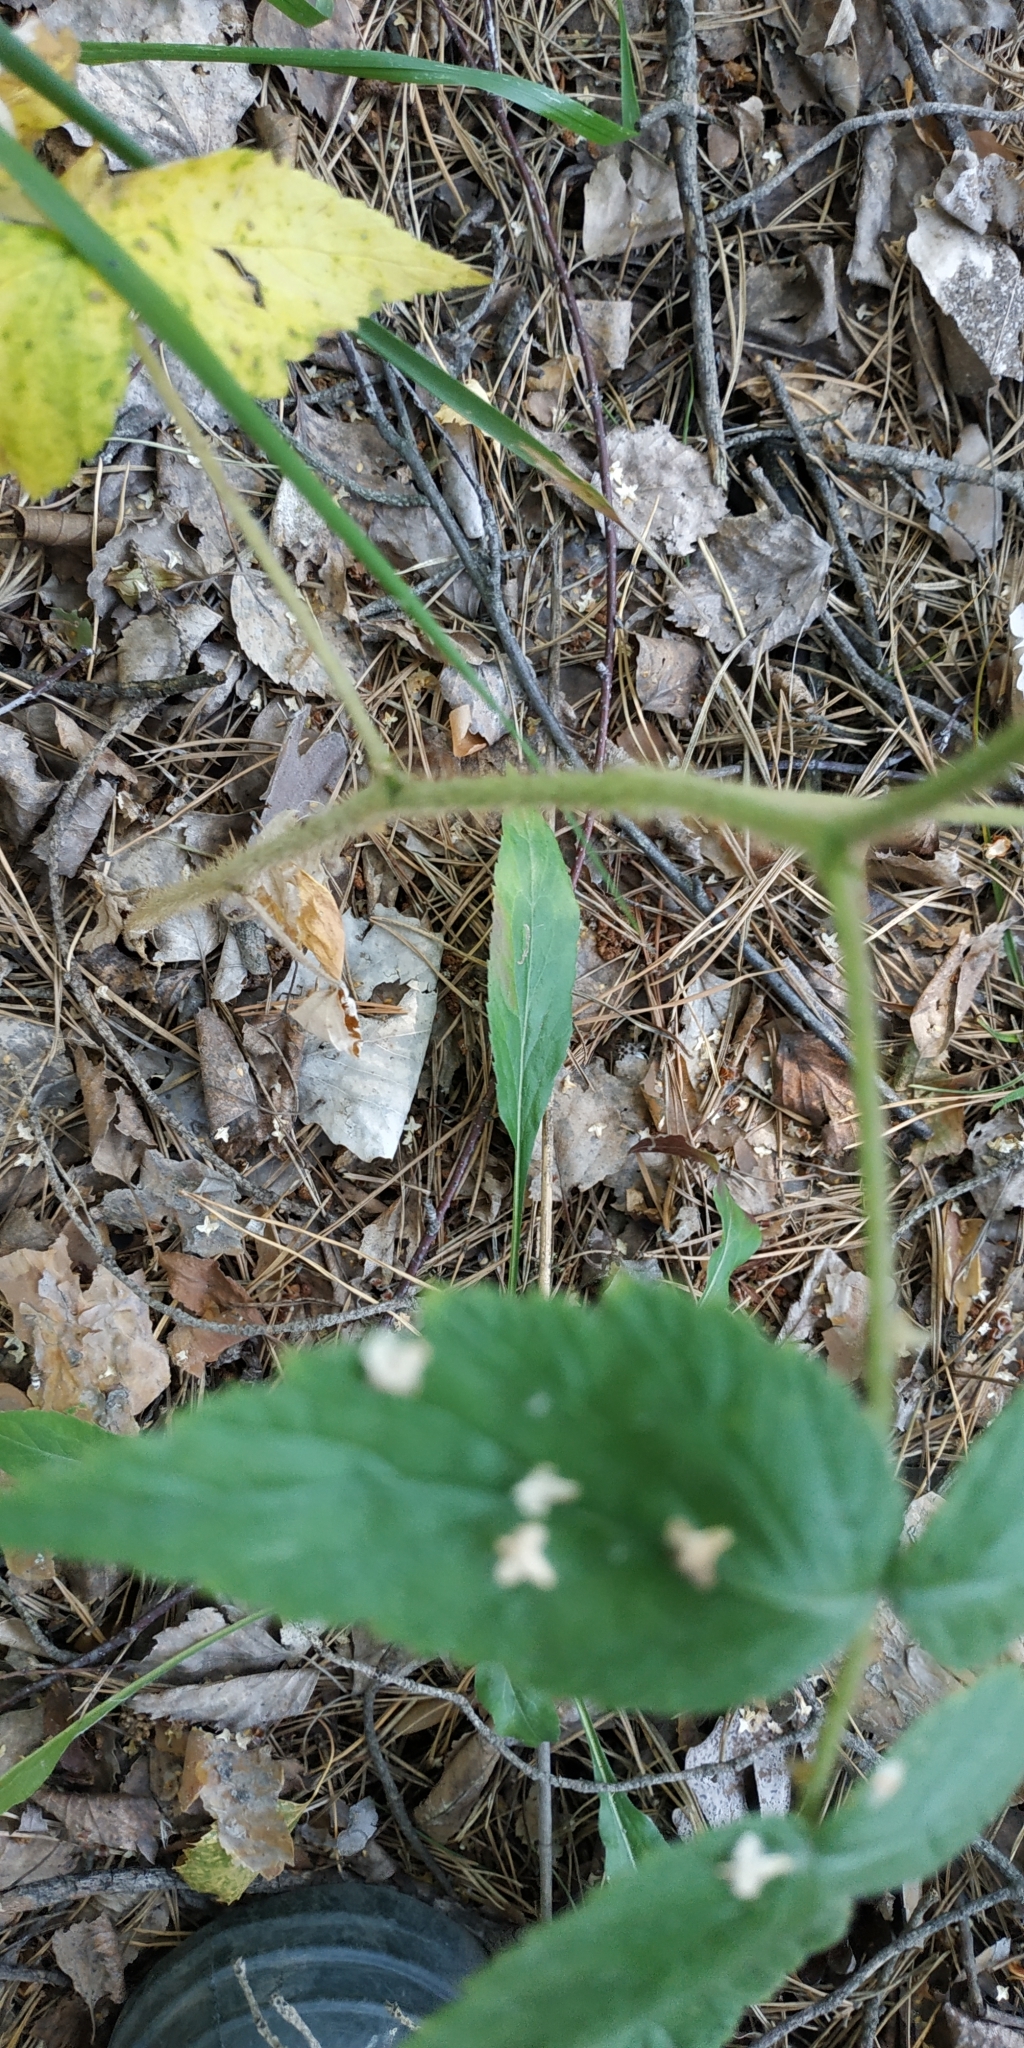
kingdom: Plantae
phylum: Tracheophyta
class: Magnoliopsida
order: Rosales
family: Rosaceae
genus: Rubus
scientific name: Rubus idaeus
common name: Raspberry
